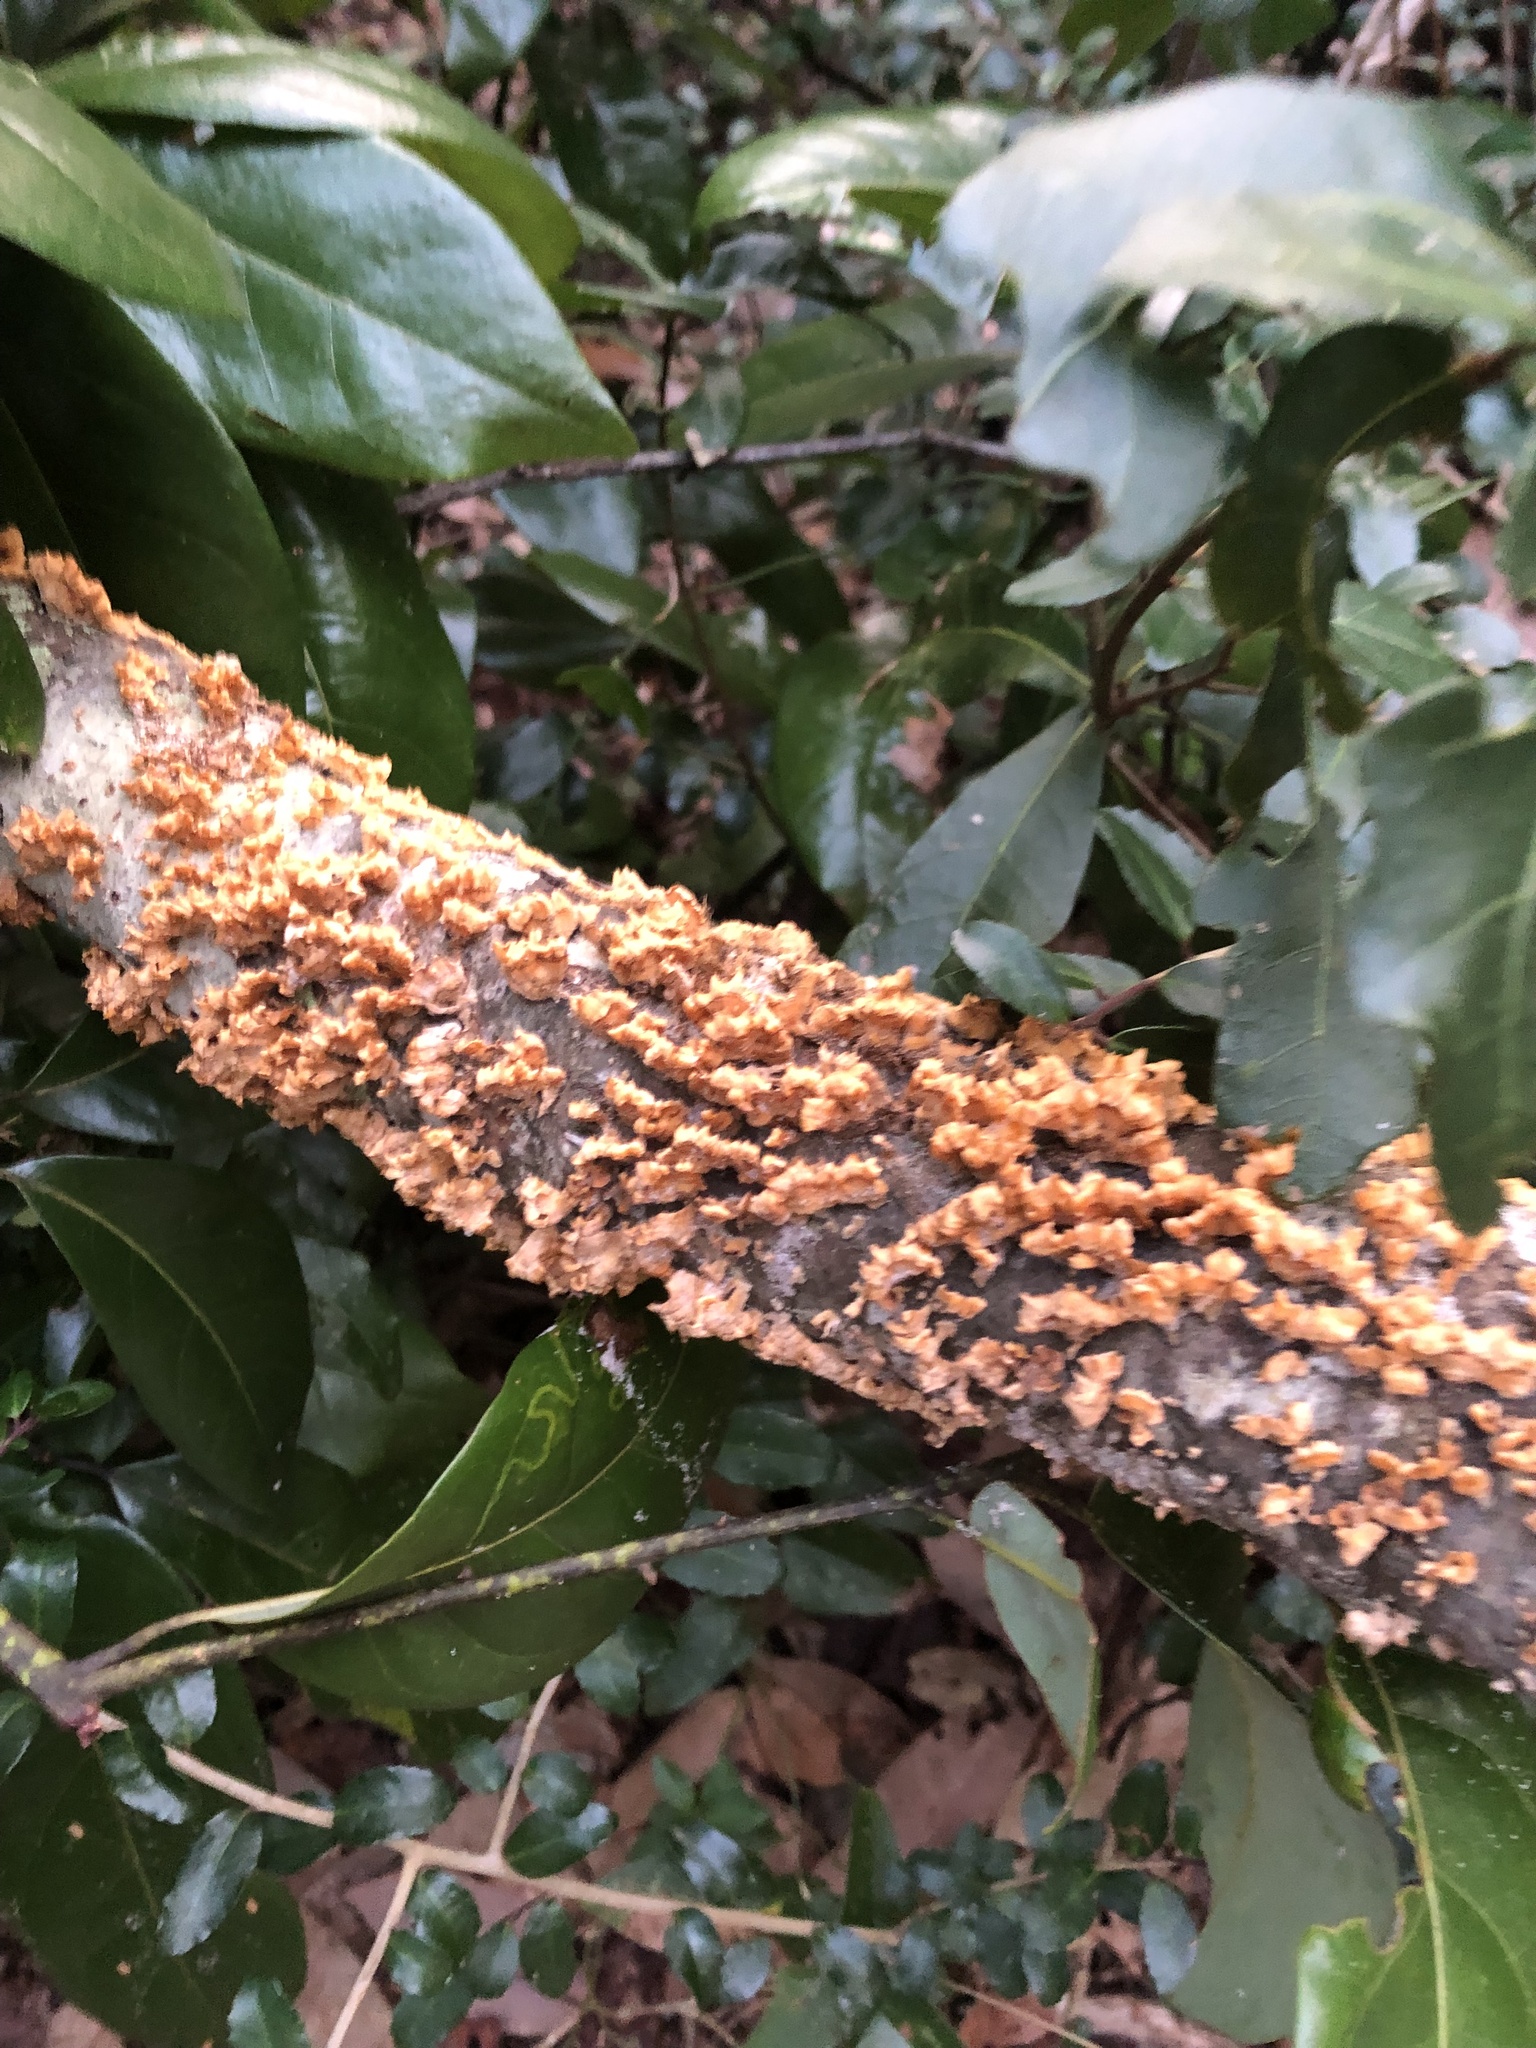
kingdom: Fungi
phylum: Basidiomycota
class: Agaricomycetes
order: Russulales
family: Stereaceae
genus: Stereum
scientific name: Stereum complicatum
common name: Crowded parchment
